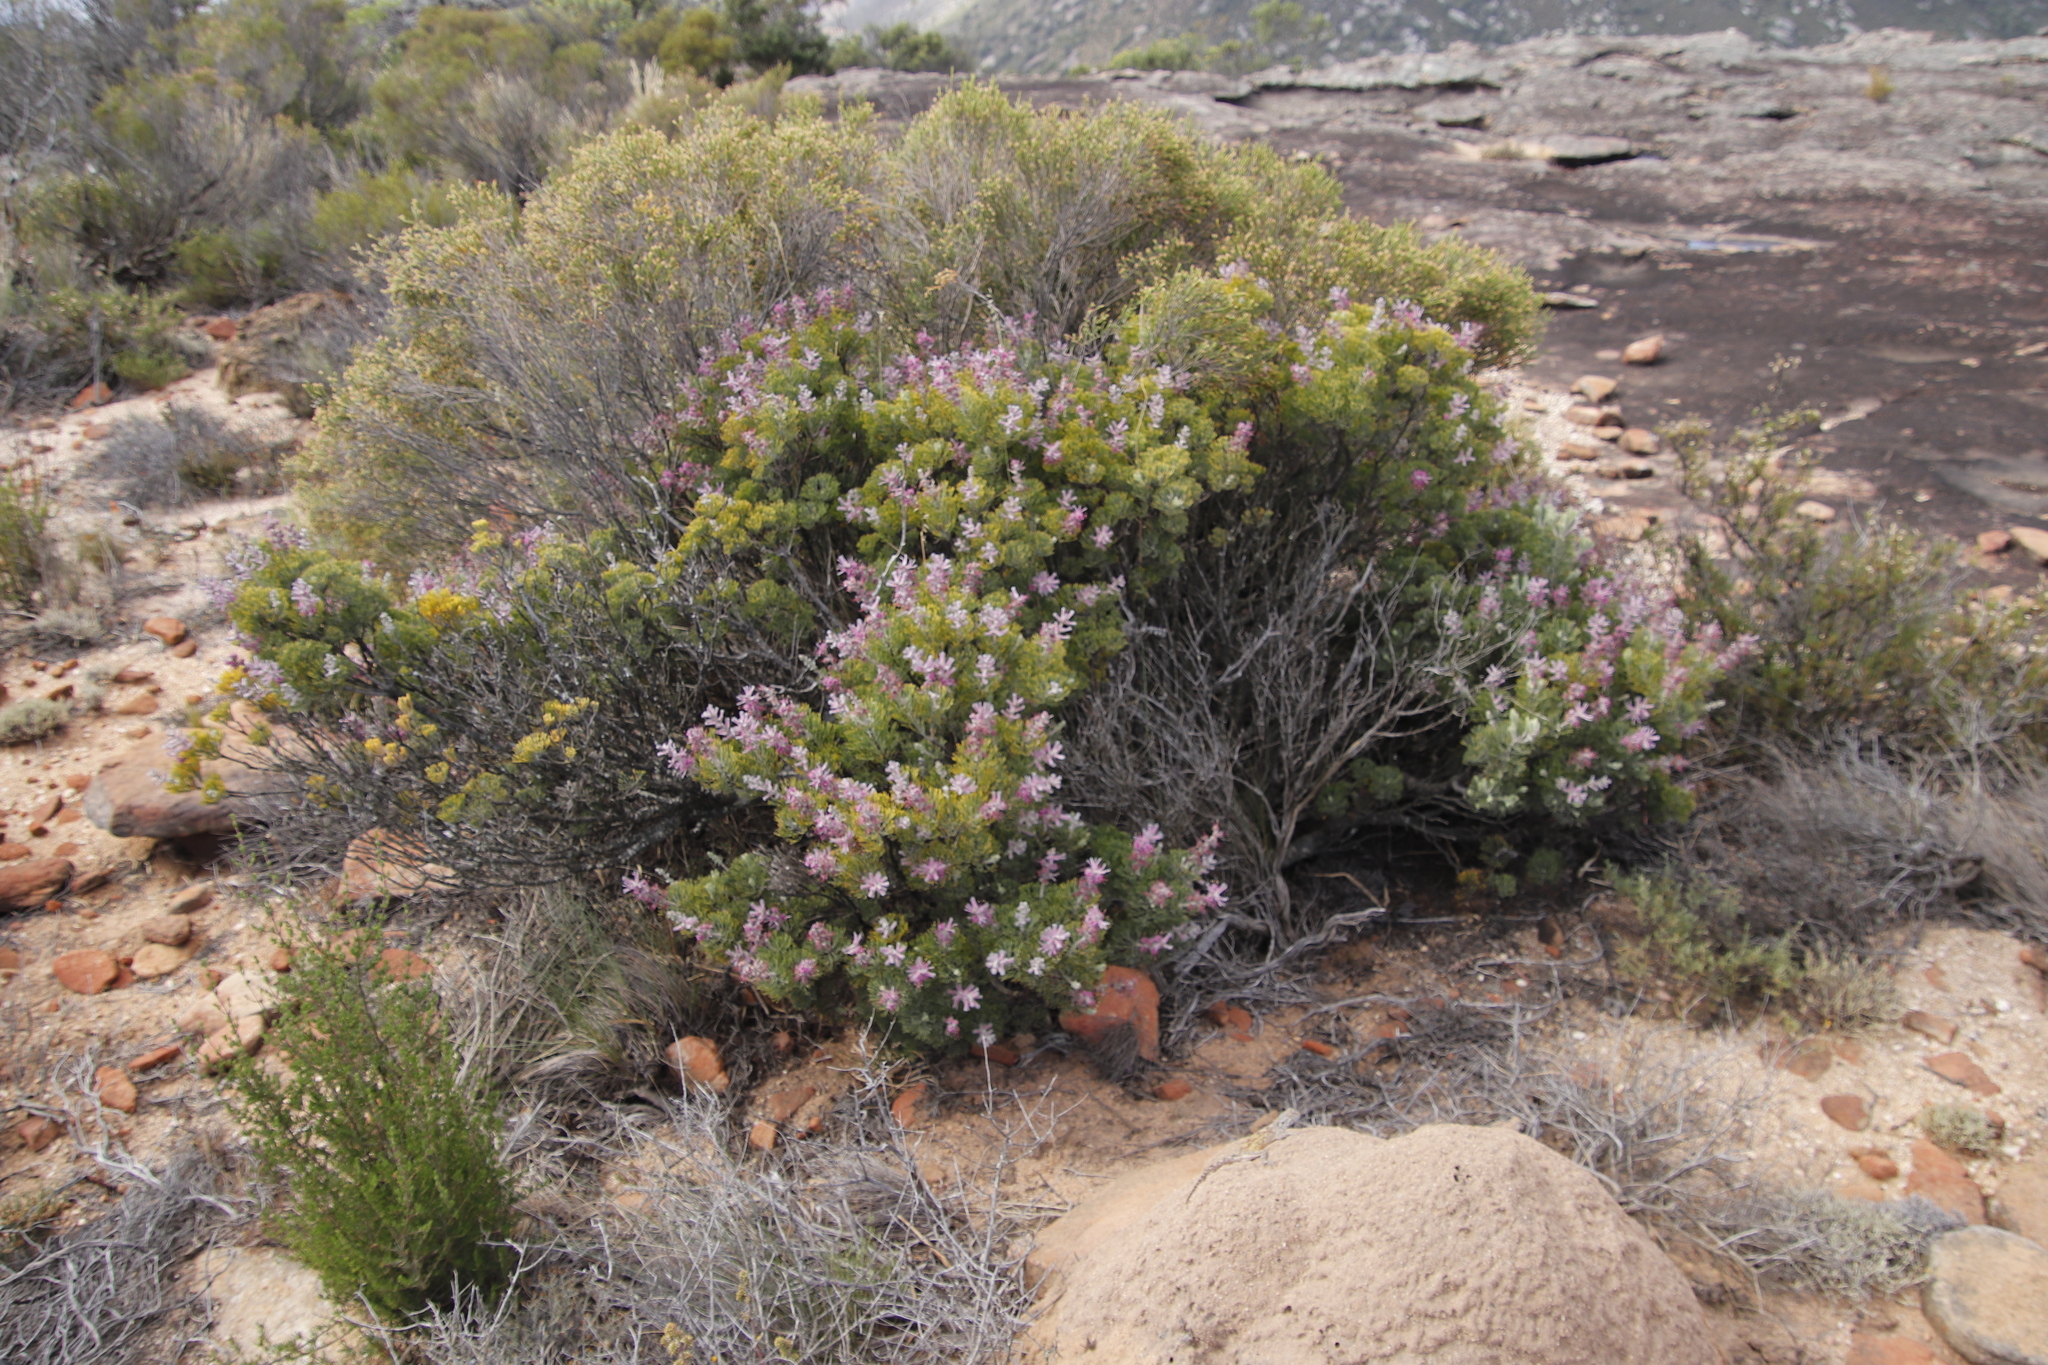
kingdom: Plantae
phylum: Tracheophyta
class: Magnoliopsida
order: Proteales
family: Proteaceae
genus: Paranomus
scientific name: Paranomus bracteolaris
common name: Bokkeveld tree sceptre
